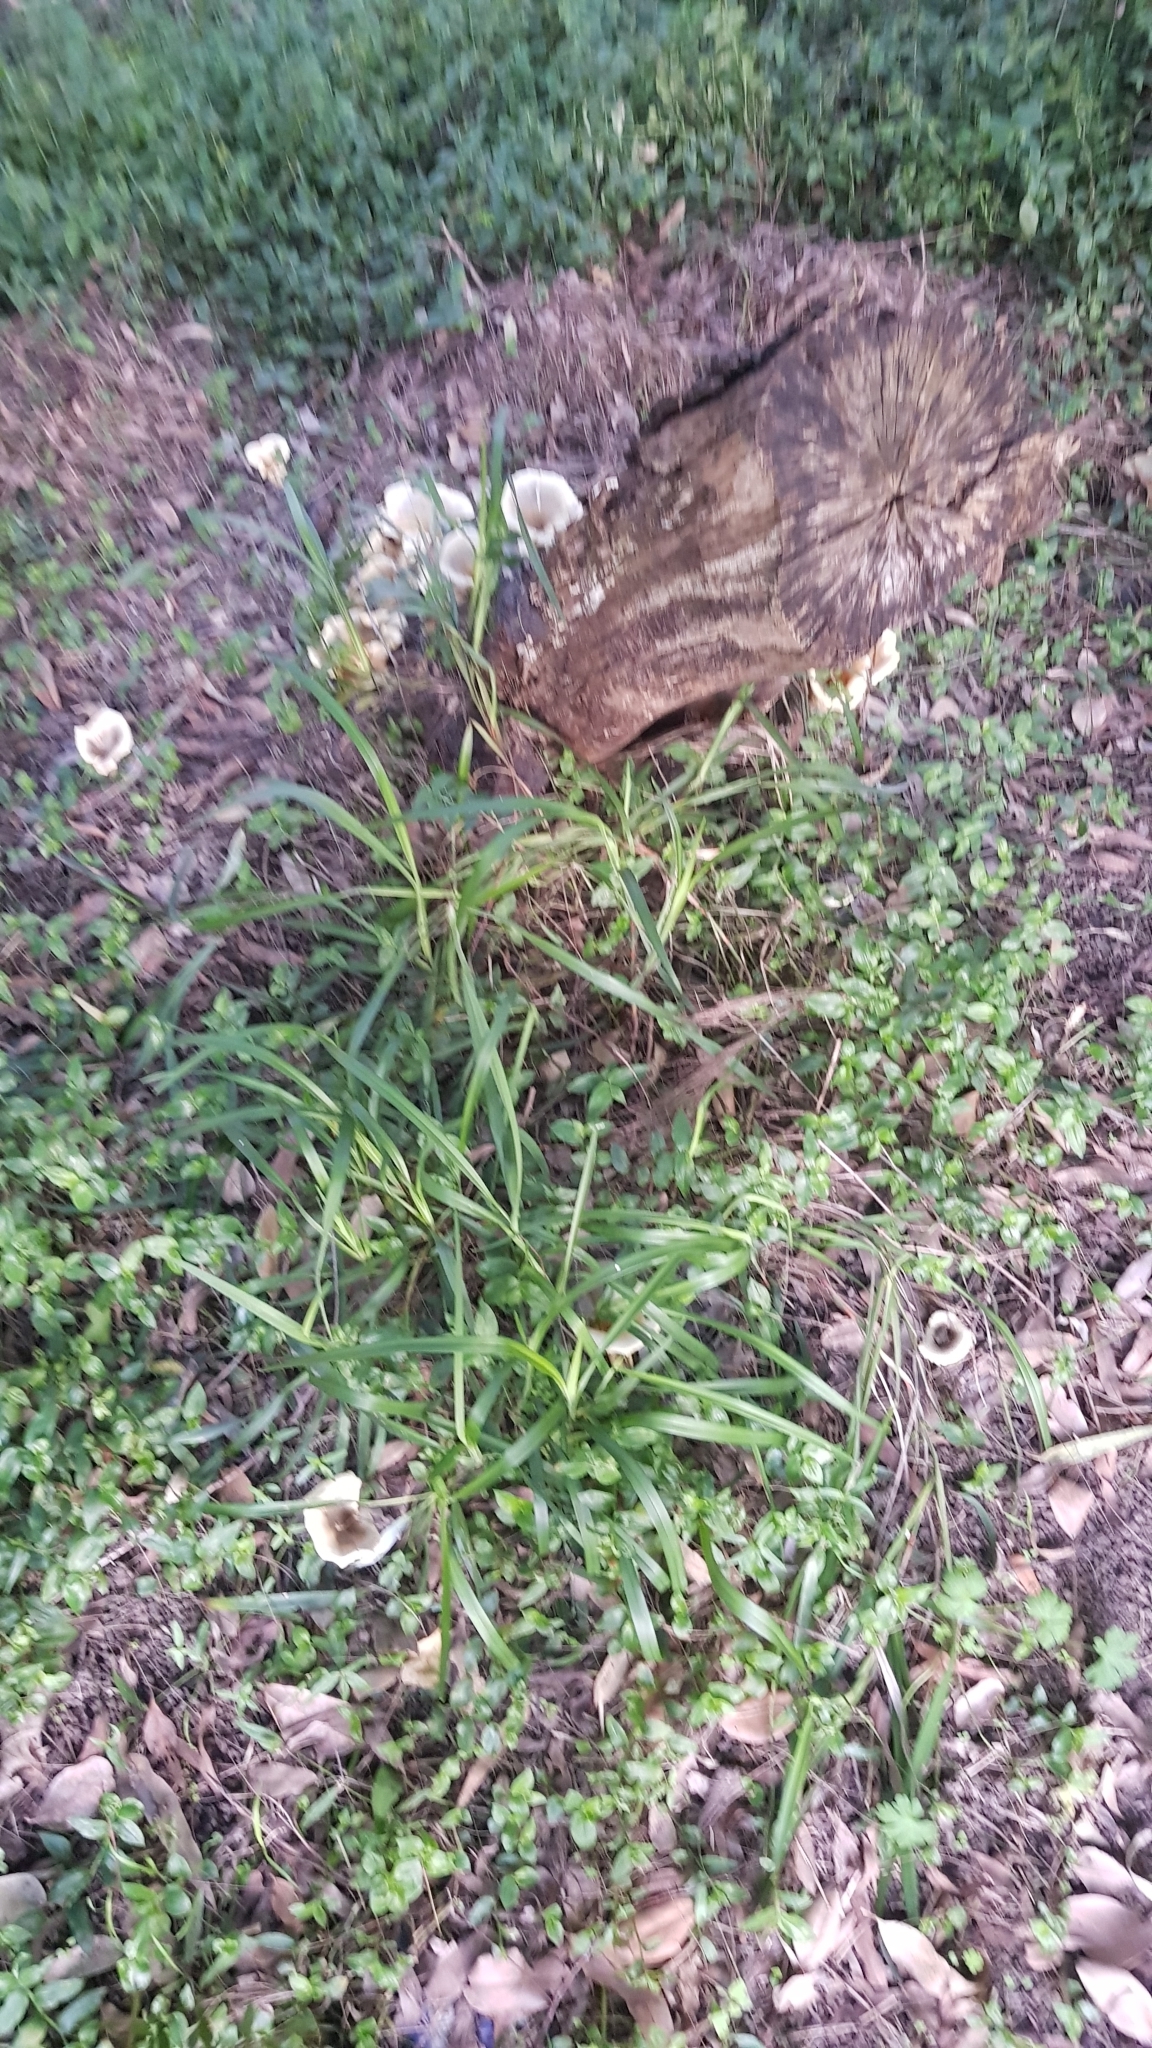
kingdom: Fungi
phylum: Basidiomycota
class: Agaricomycetes
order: Agaricales
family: Omphalotaceae
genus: Omphalotus
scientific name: Omphalotus nidiformis
